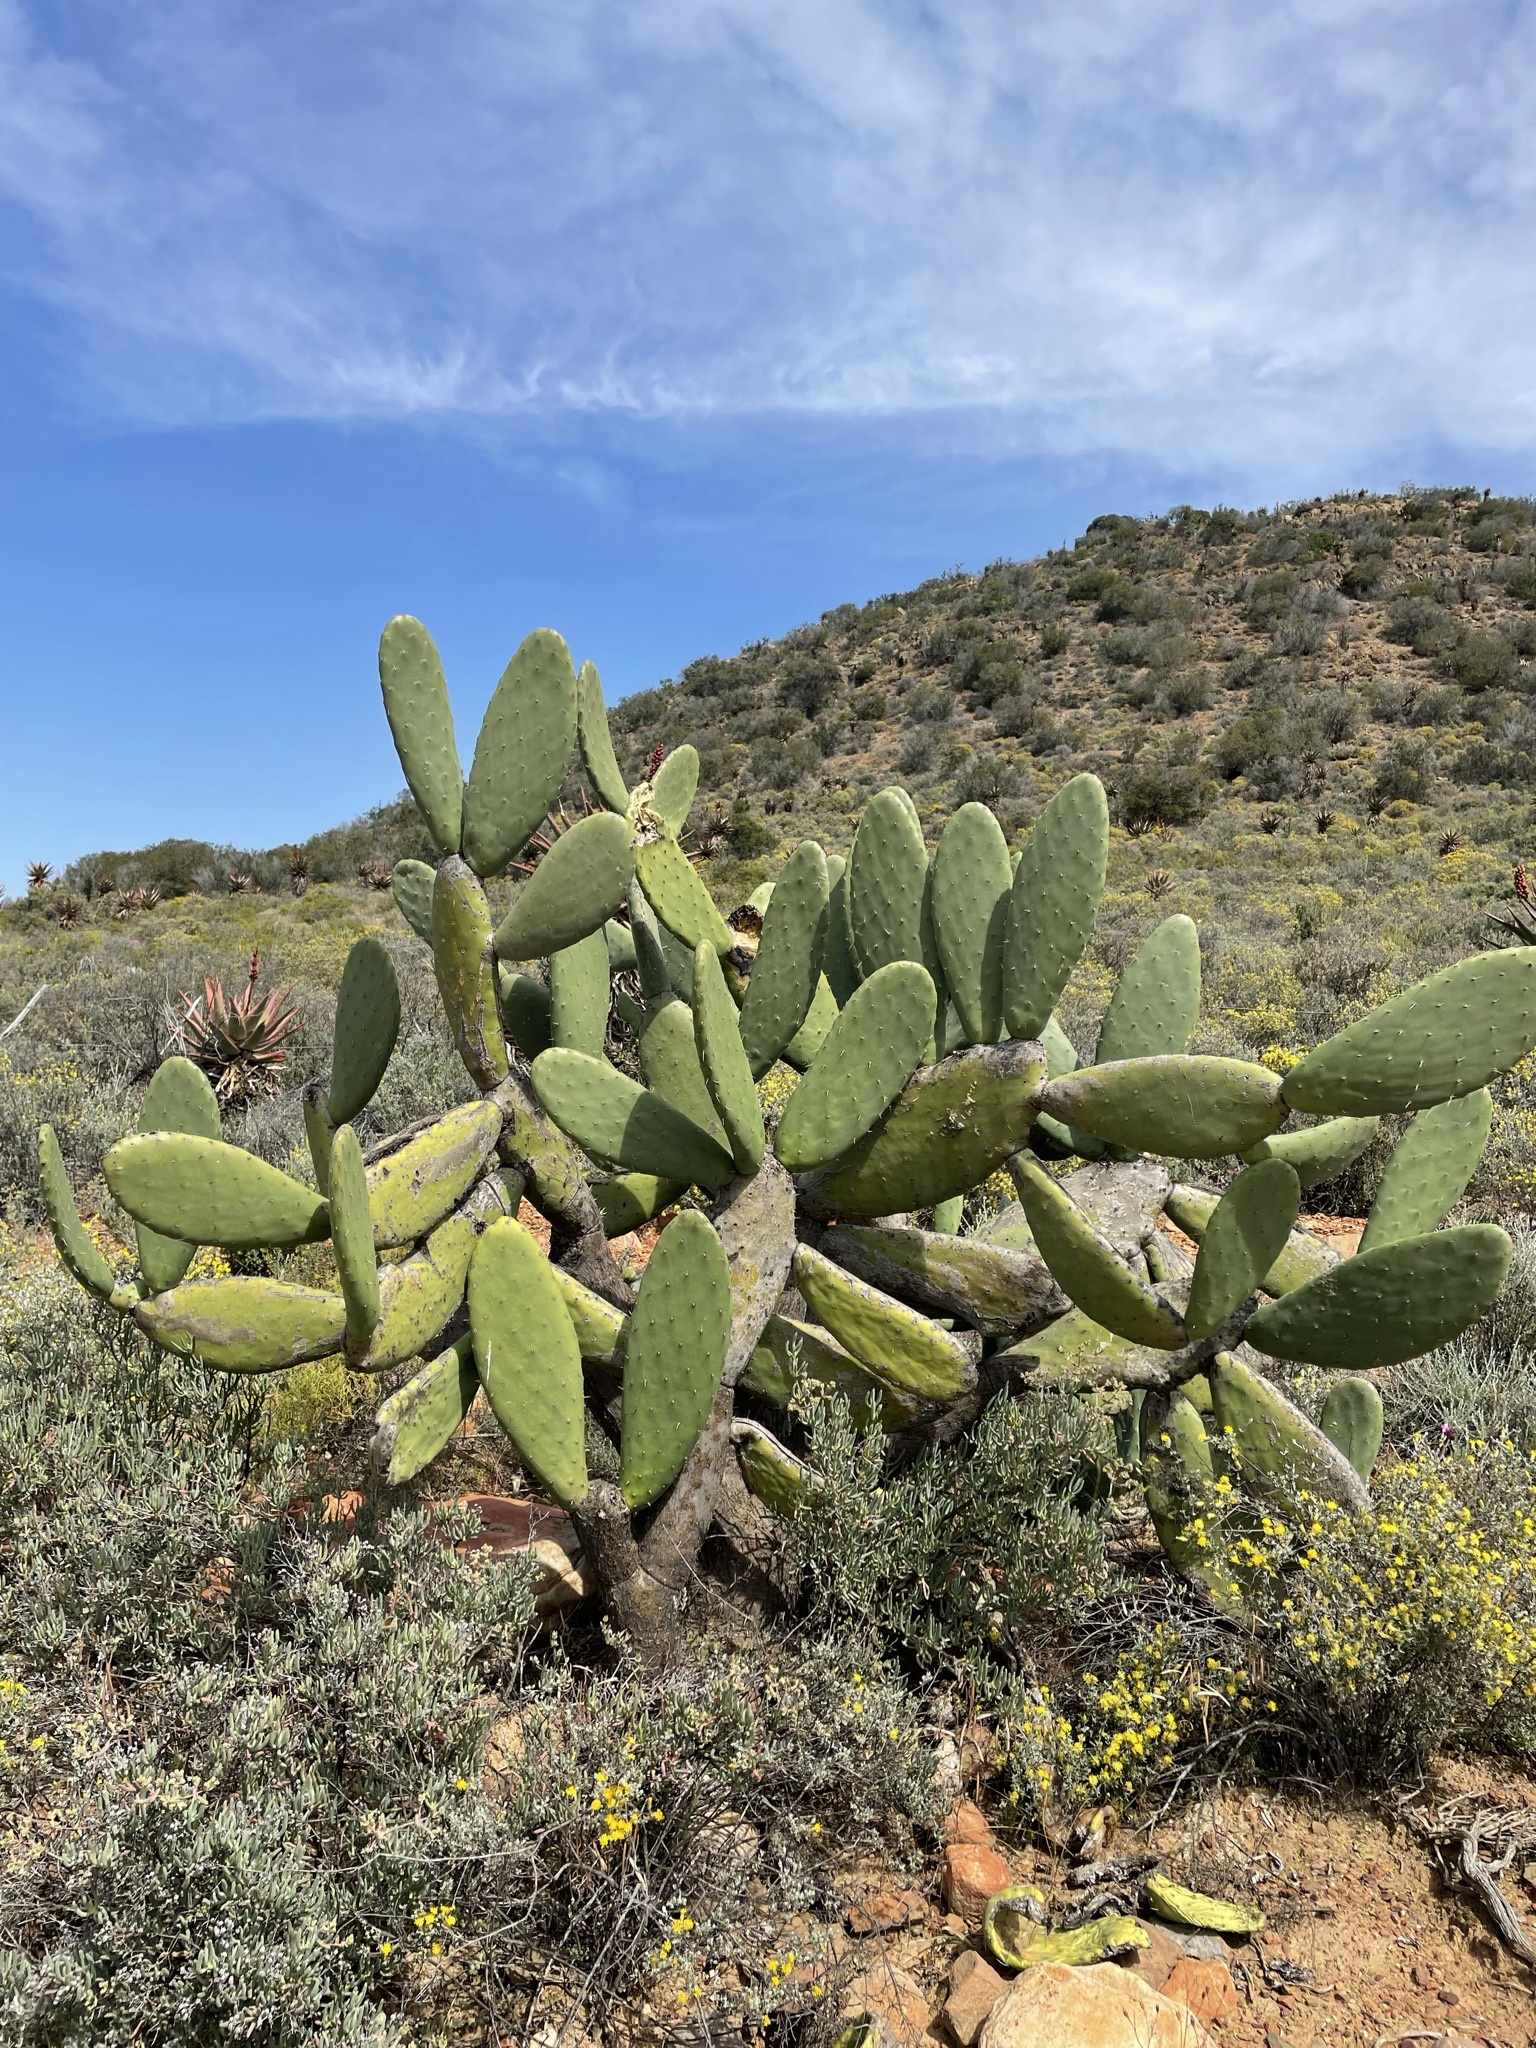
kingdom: Plantae
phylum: Tracheophyta
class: Magnoliopsida
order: Caryophyllales
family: Cactaceae
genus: Opuntia
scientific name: Opuntia ficus-indica
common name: Barbary fig
